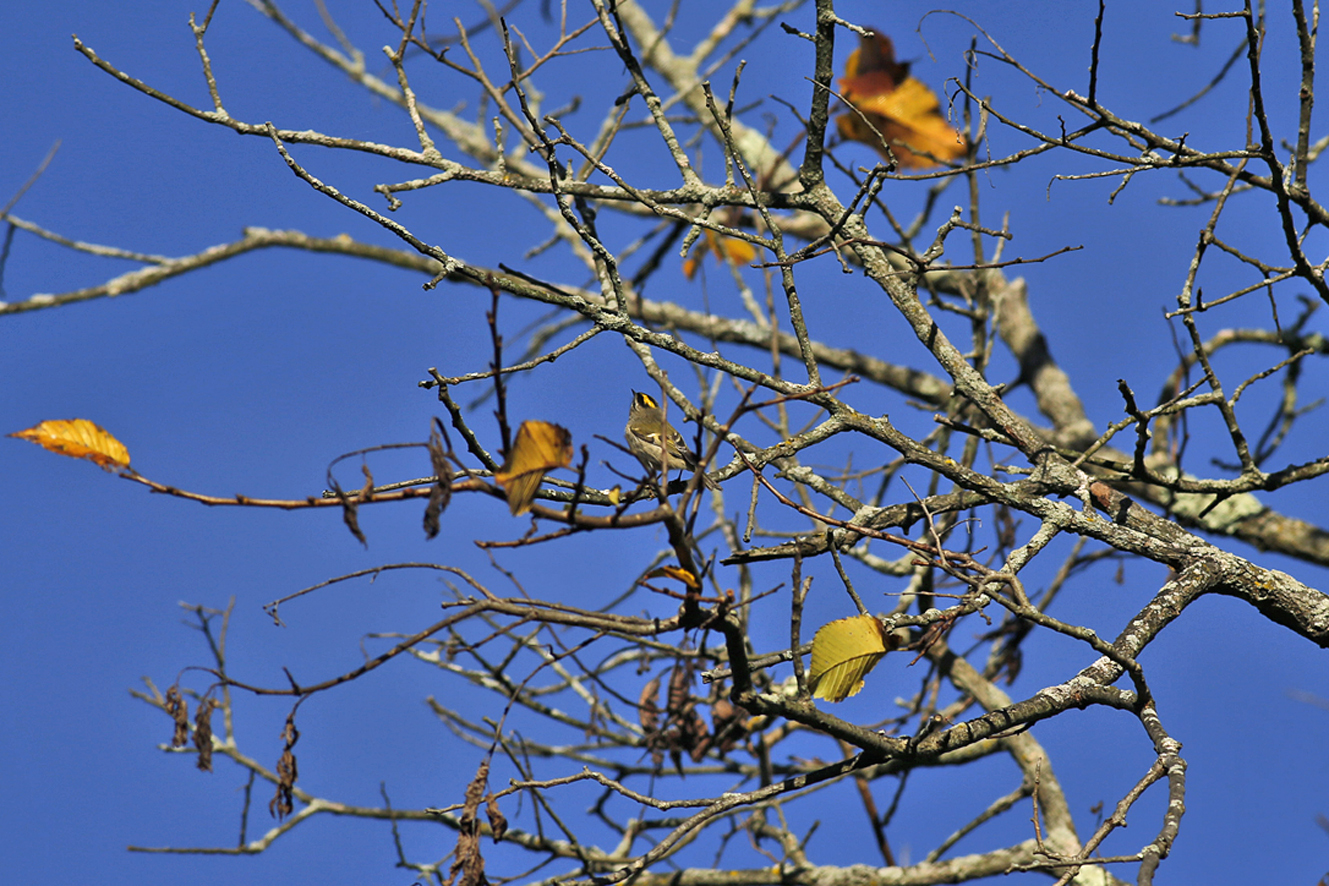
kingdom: Animalia
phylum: Chordata
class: Aves
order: Passeriformes
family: Regulidae
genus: Regulus
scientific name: Regulus satrapa
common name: Golden-crowned kinglet
